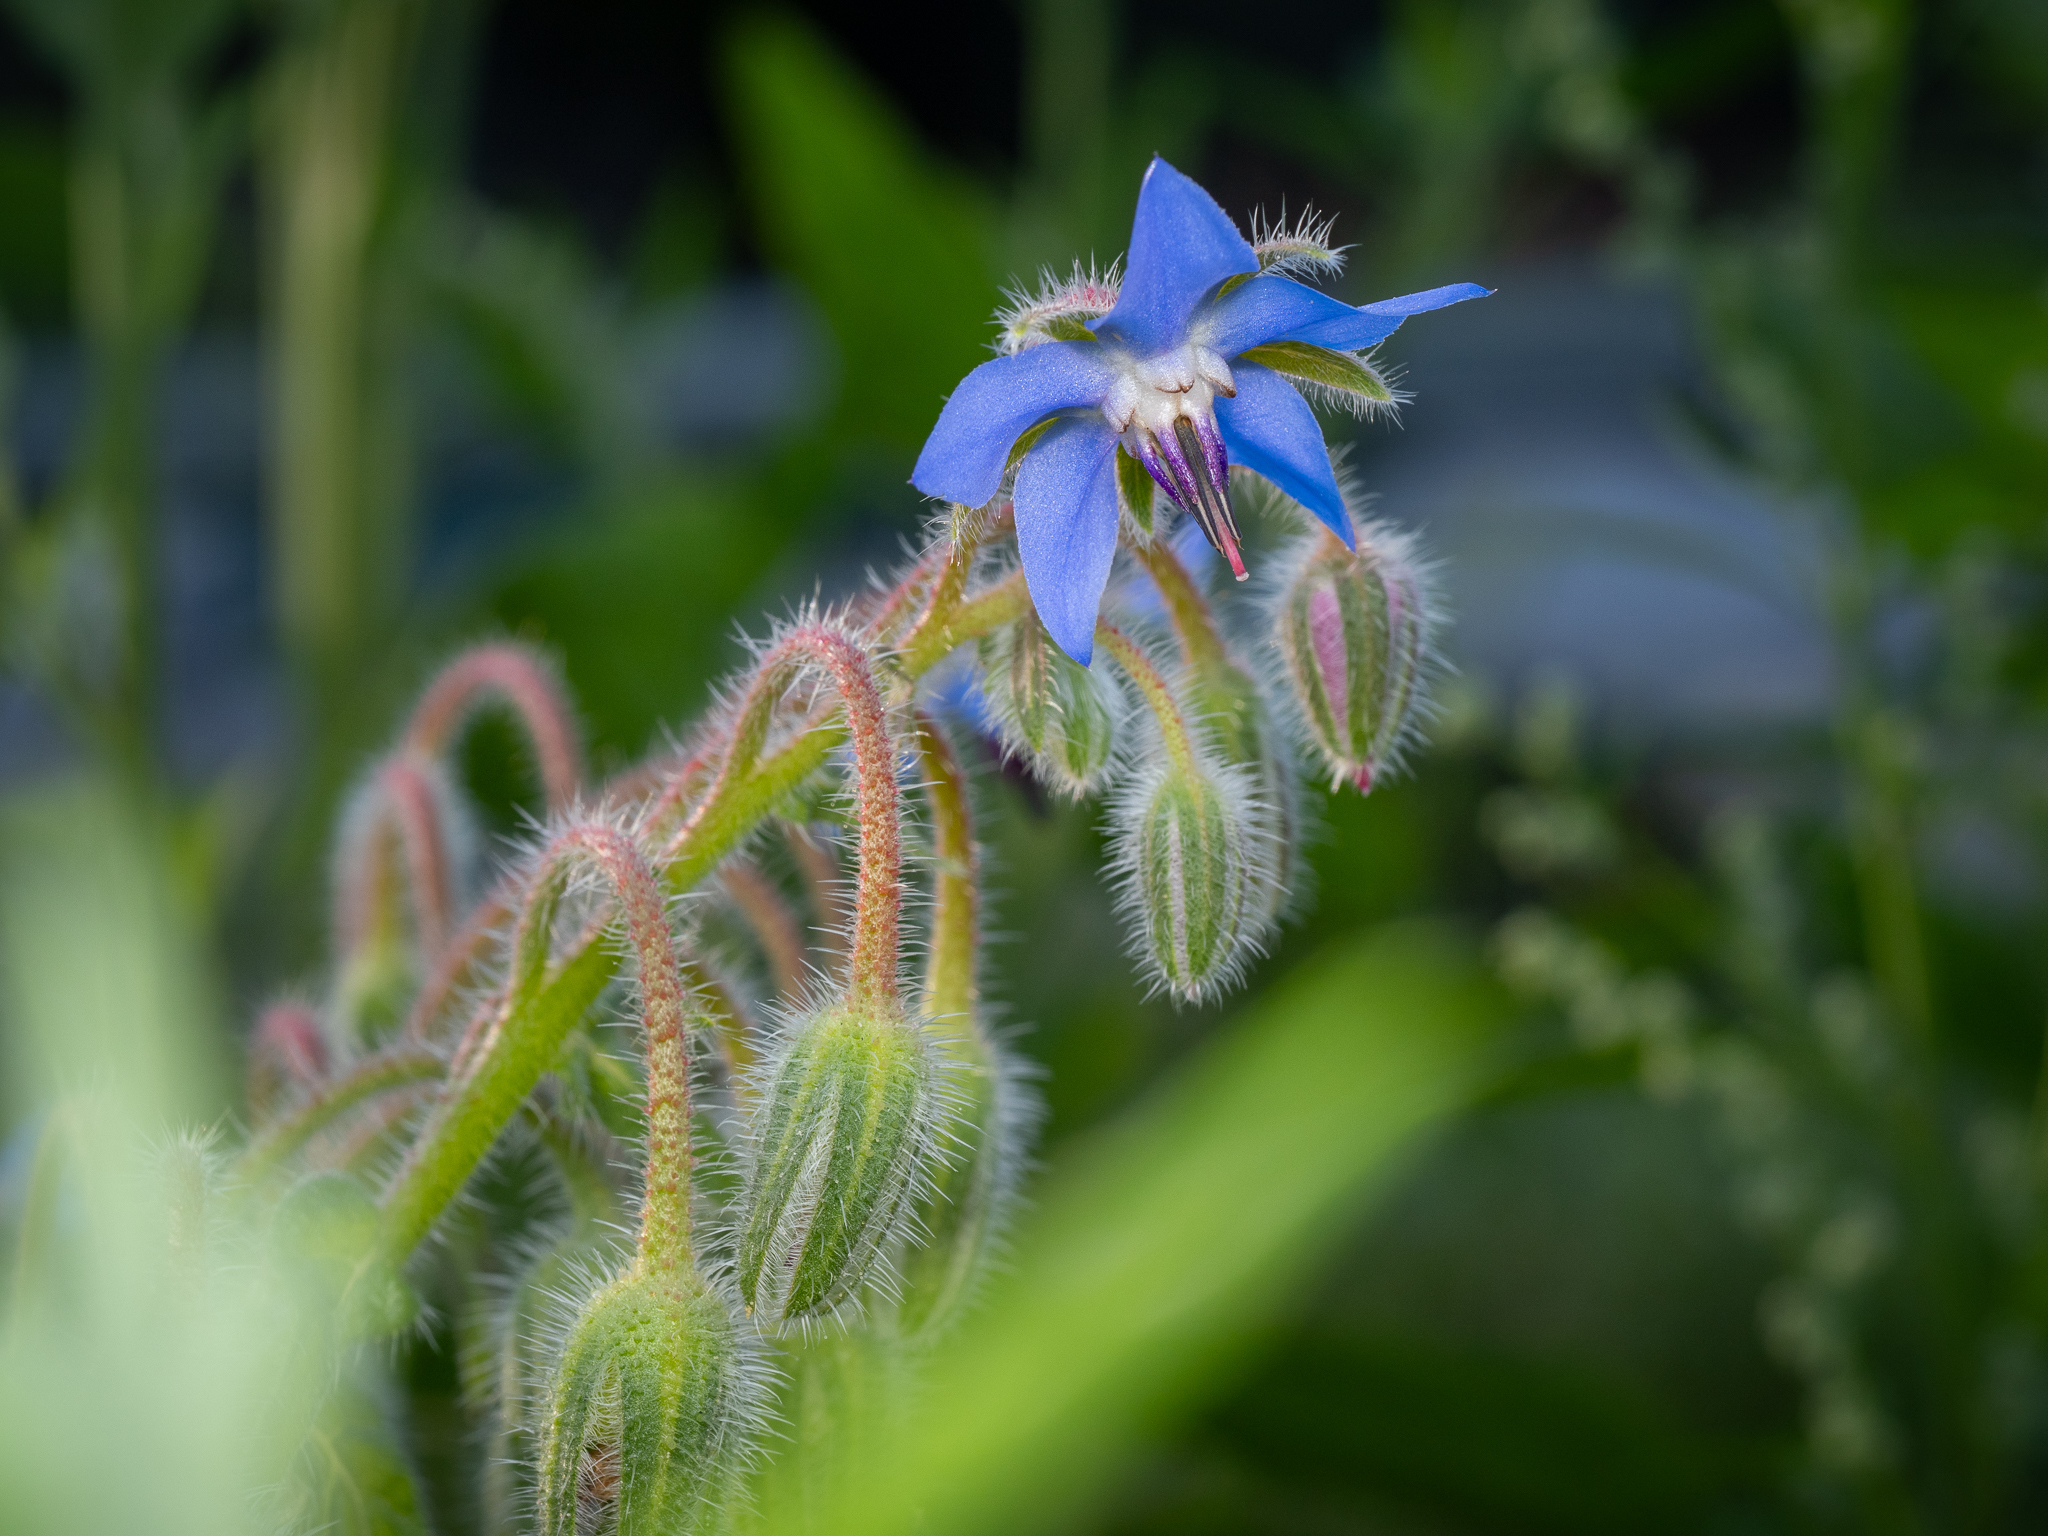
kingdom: Plantae
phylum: Tracheophyta
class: Magnoliopsida
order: Boraginales
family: Boraginaceae
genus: Borago
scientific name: Borago officinalis
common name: Borage
